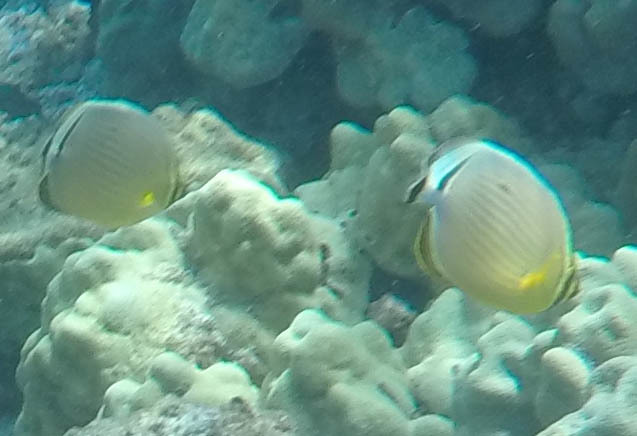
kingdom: Animalia
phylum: Chordata
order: Perciformes
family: Chaetodontidae
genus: Chaetodon
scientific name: Chaetodon lunulatus
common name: Redfin butterflyfish
